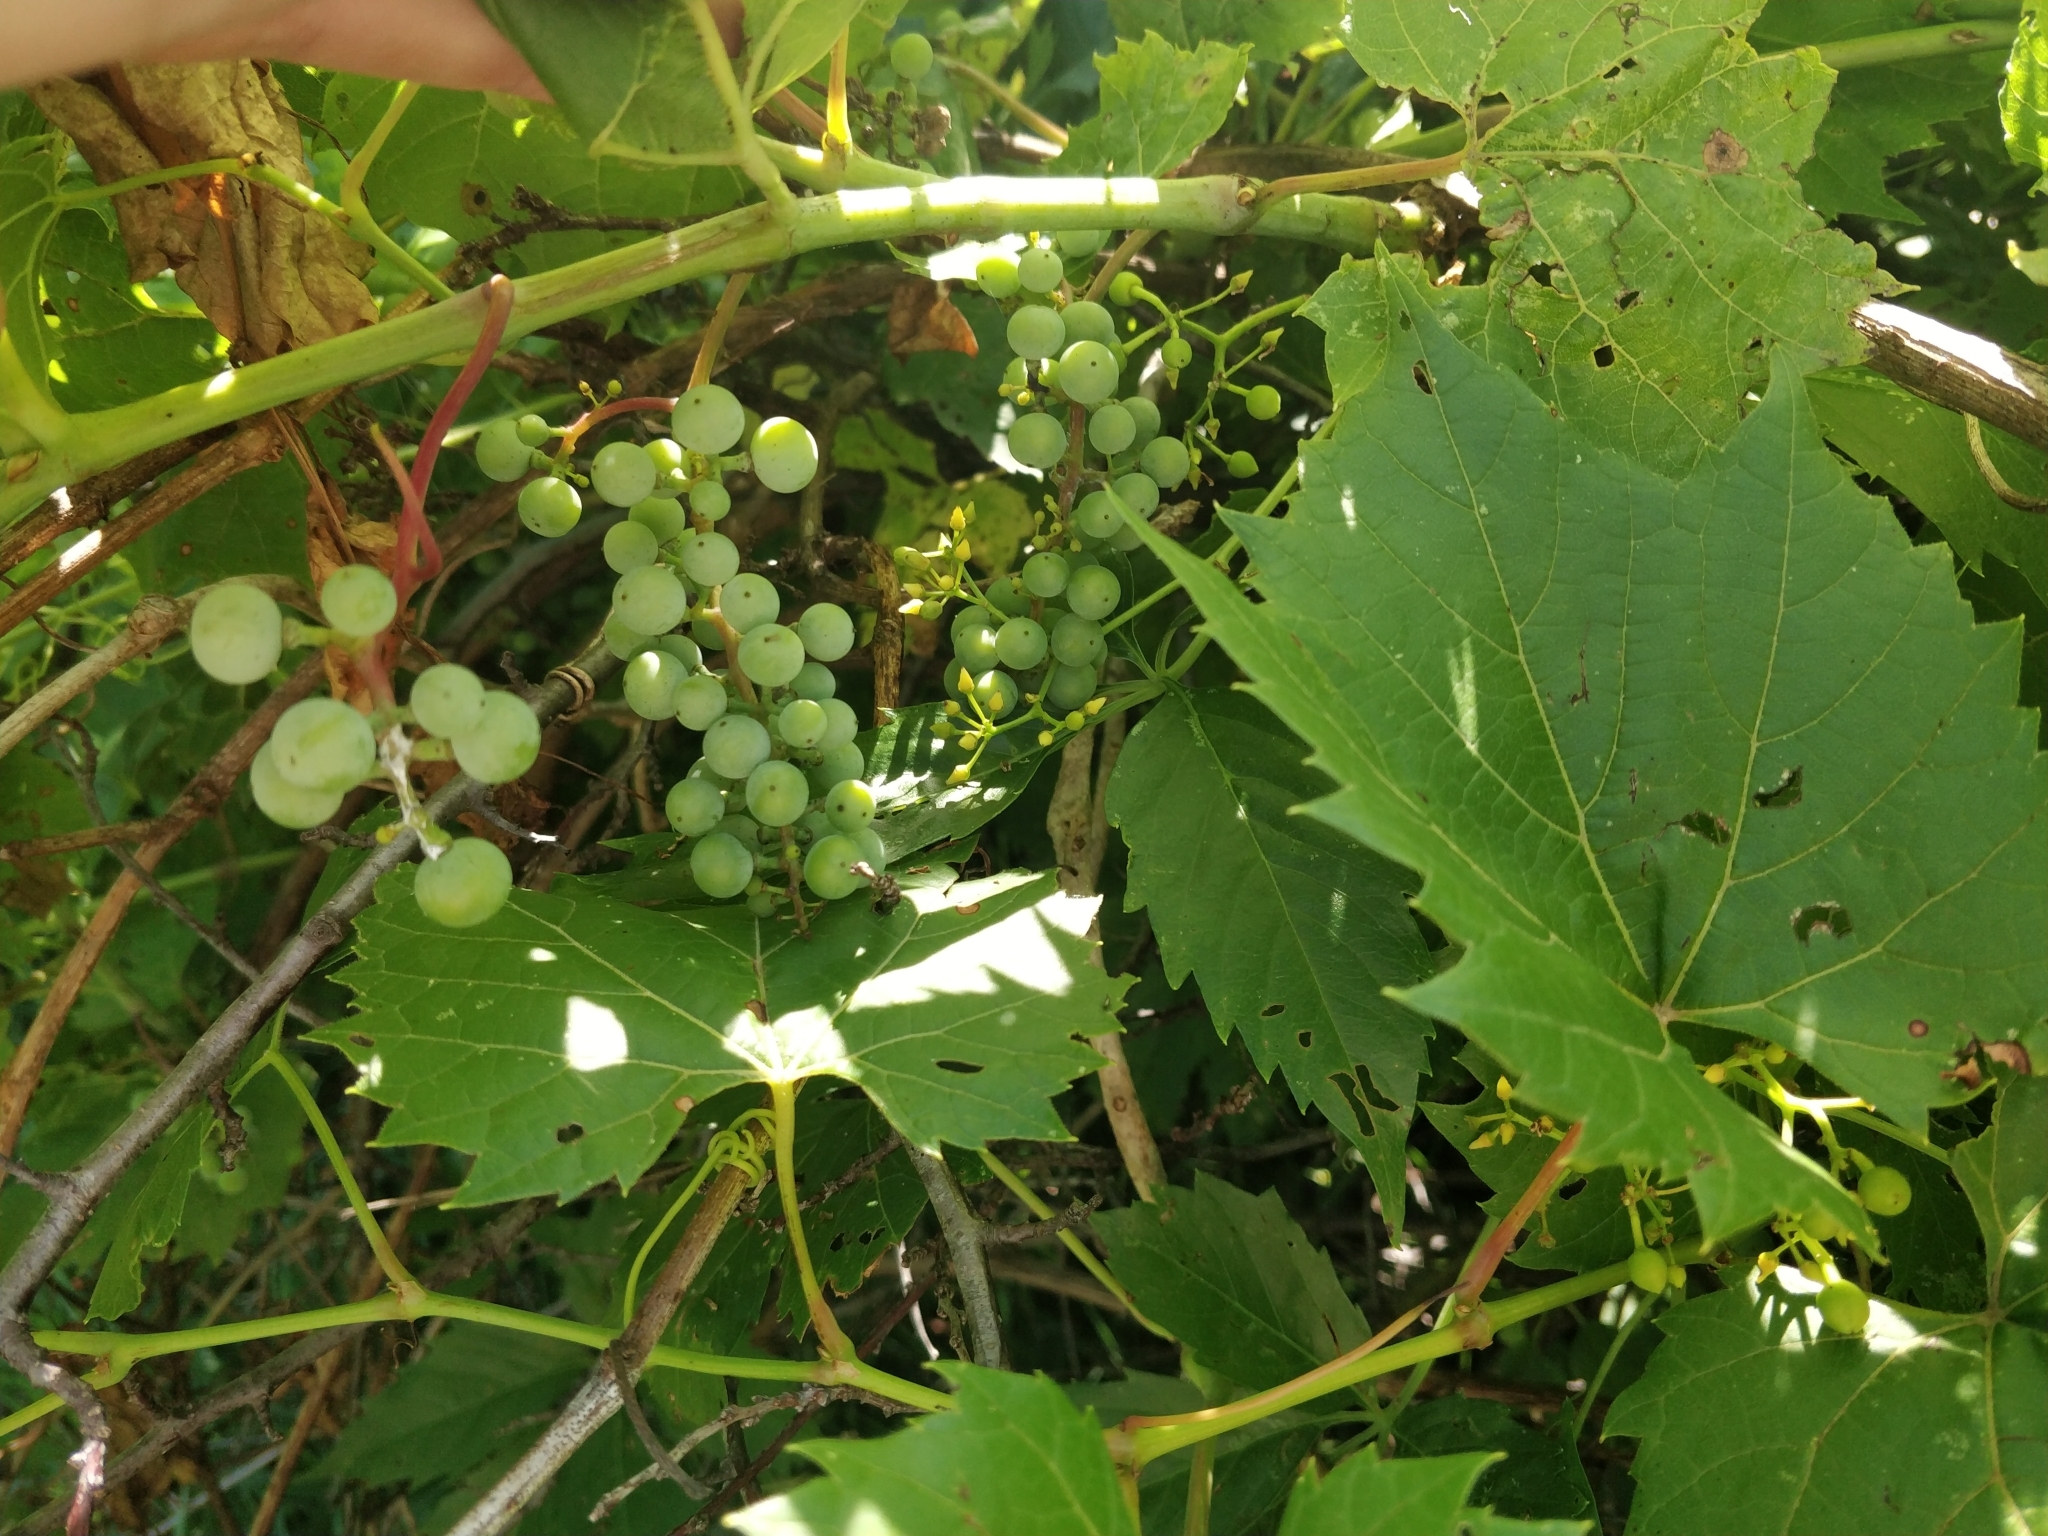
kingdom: Plantae
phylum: Tracheophyta
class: Magnoliopsida
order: Vitales
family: Vitaceae
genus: Vitis
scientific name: Vitis riparia
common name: Frost grape
